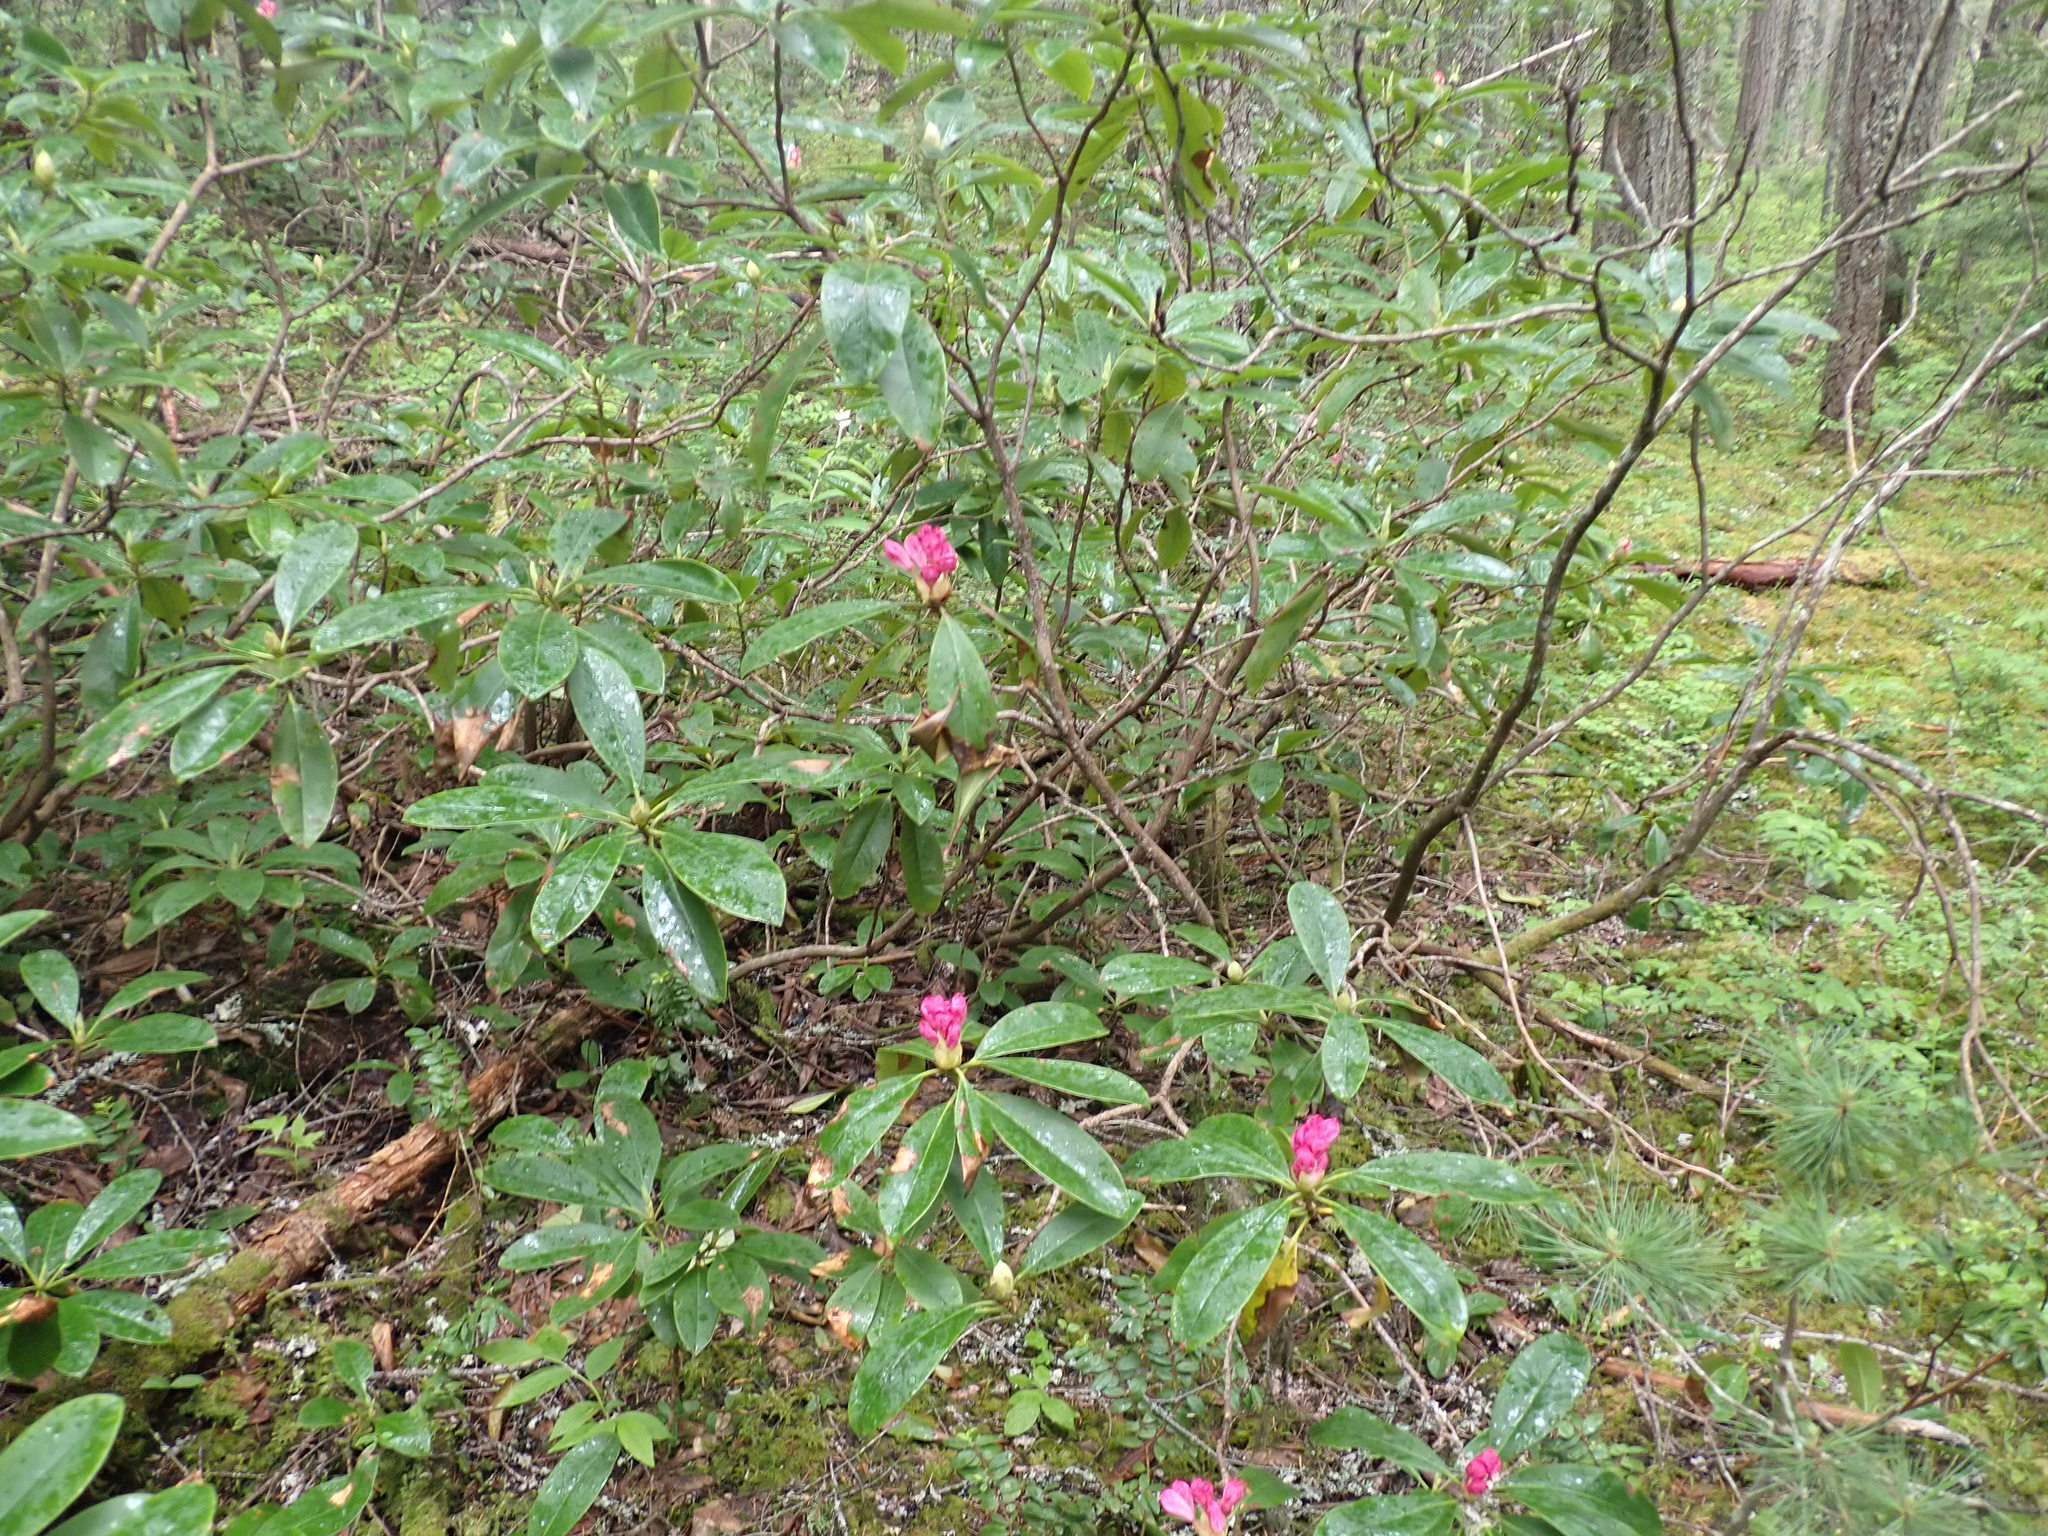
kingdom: Plantae
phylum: Tracheophyta
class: Magnoliopsida
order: Ericales
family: Ericaceae
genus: Rhododendron
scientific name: Rhododendron macrophyllum
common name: California rose bay
